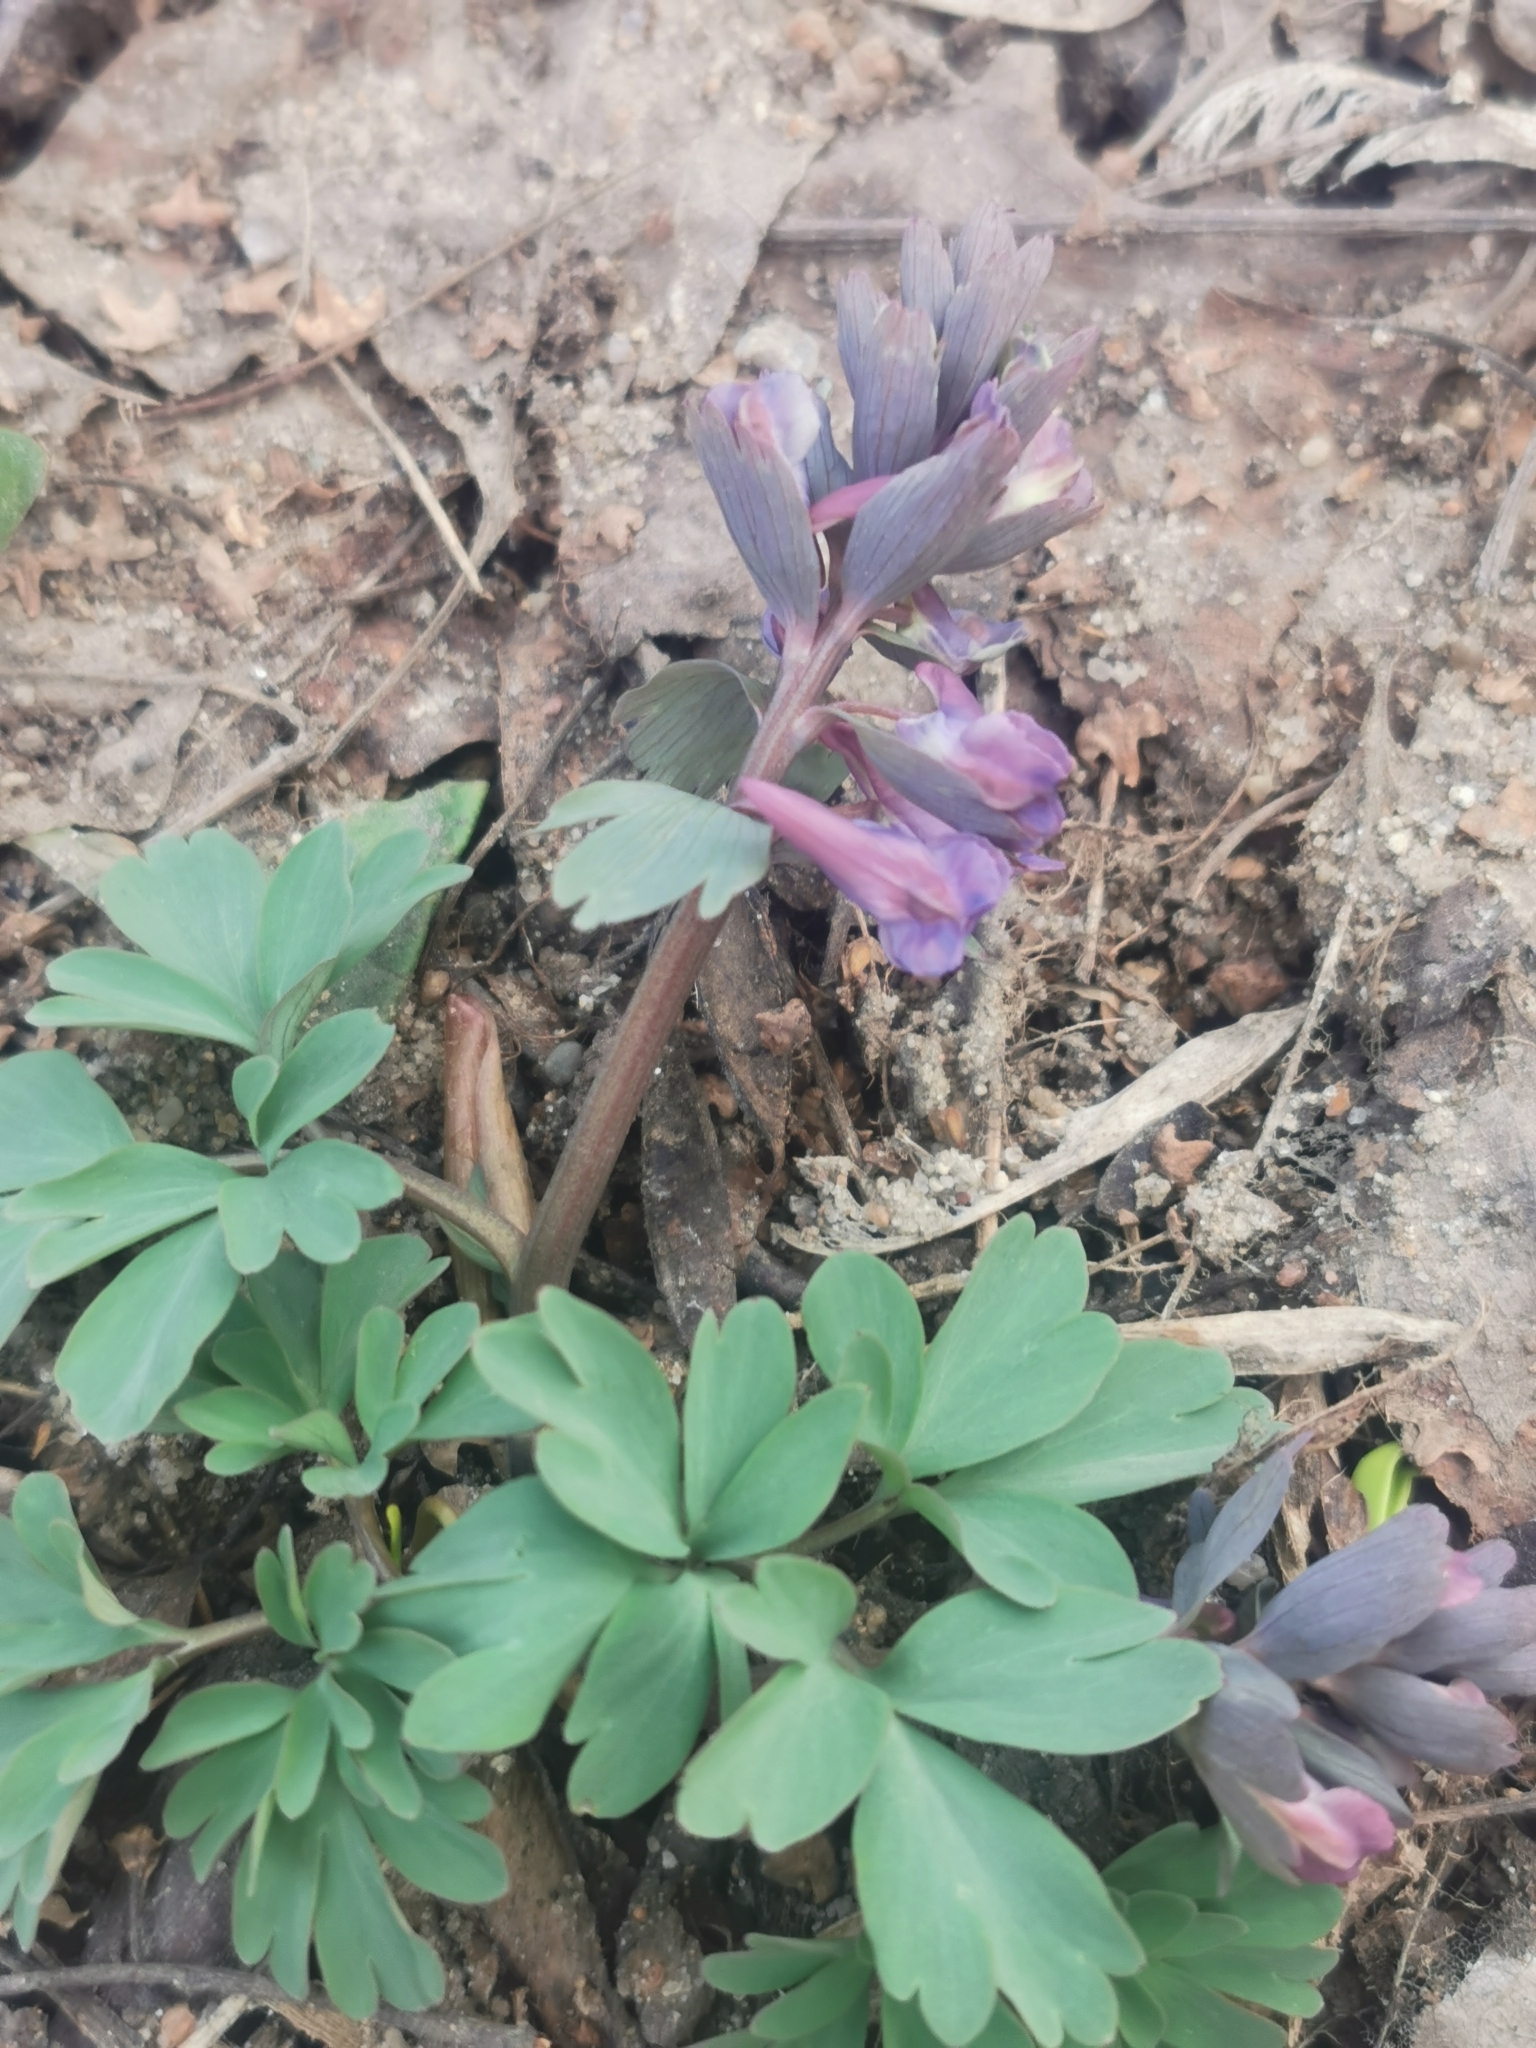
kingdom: Plantae
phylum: Tracheophyta
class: Magnoliopsida
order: Ranunculales
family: Papaveraceae
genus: Corydalis
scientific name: Corydalis solida
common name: Bird-in-a-bush
